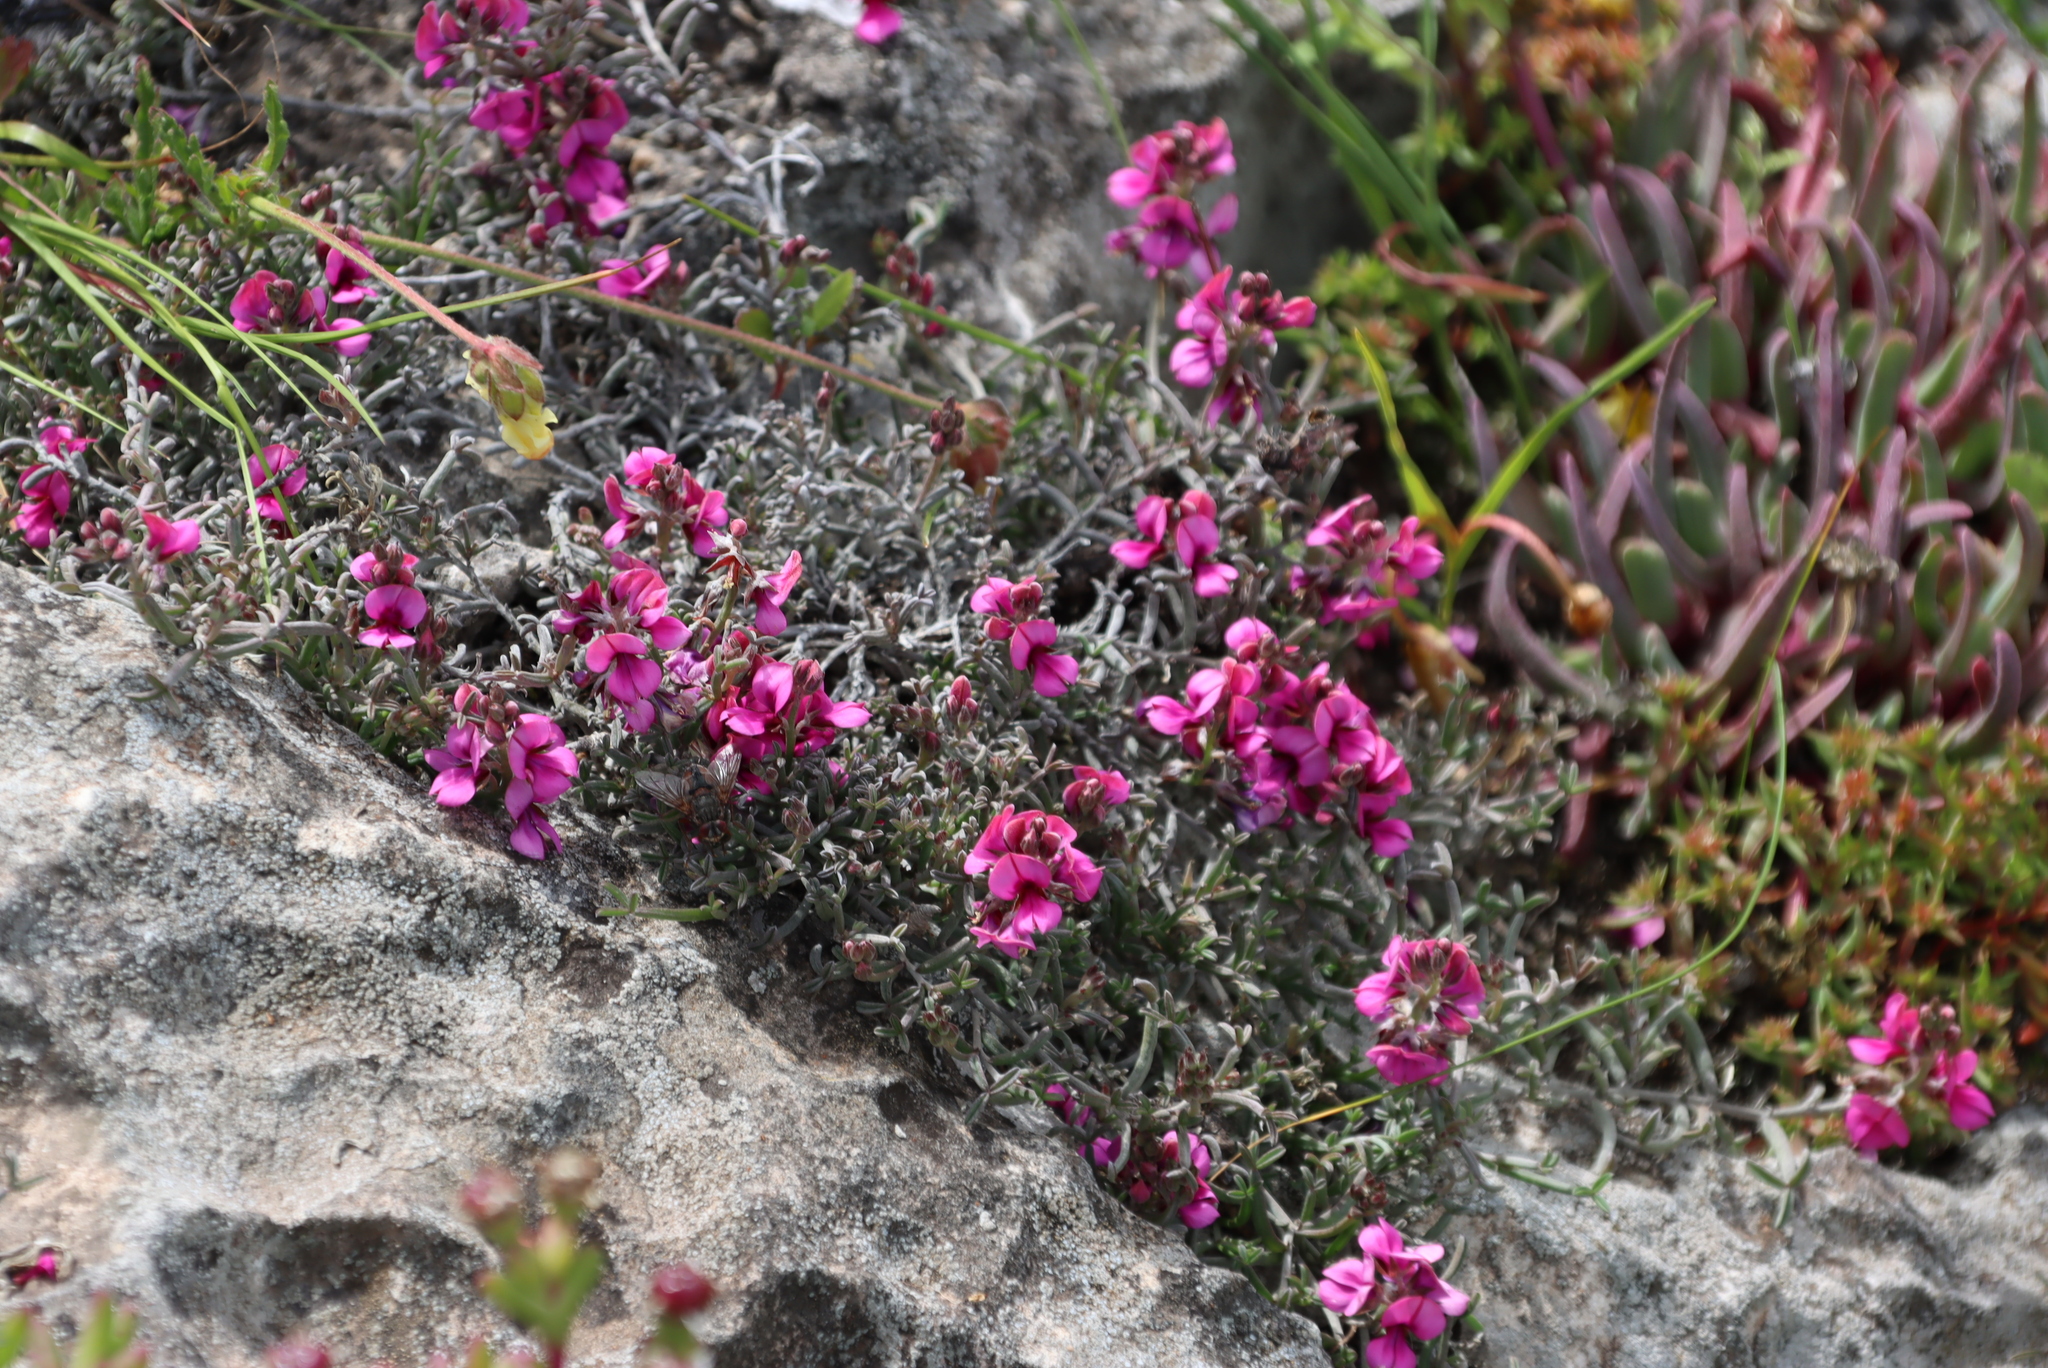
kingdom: Plantae
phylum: Tracheophyta
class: Magnoliopsida
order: Fabales
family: Fabaceae
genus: Indigofera
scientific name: Indigofera platypoda
